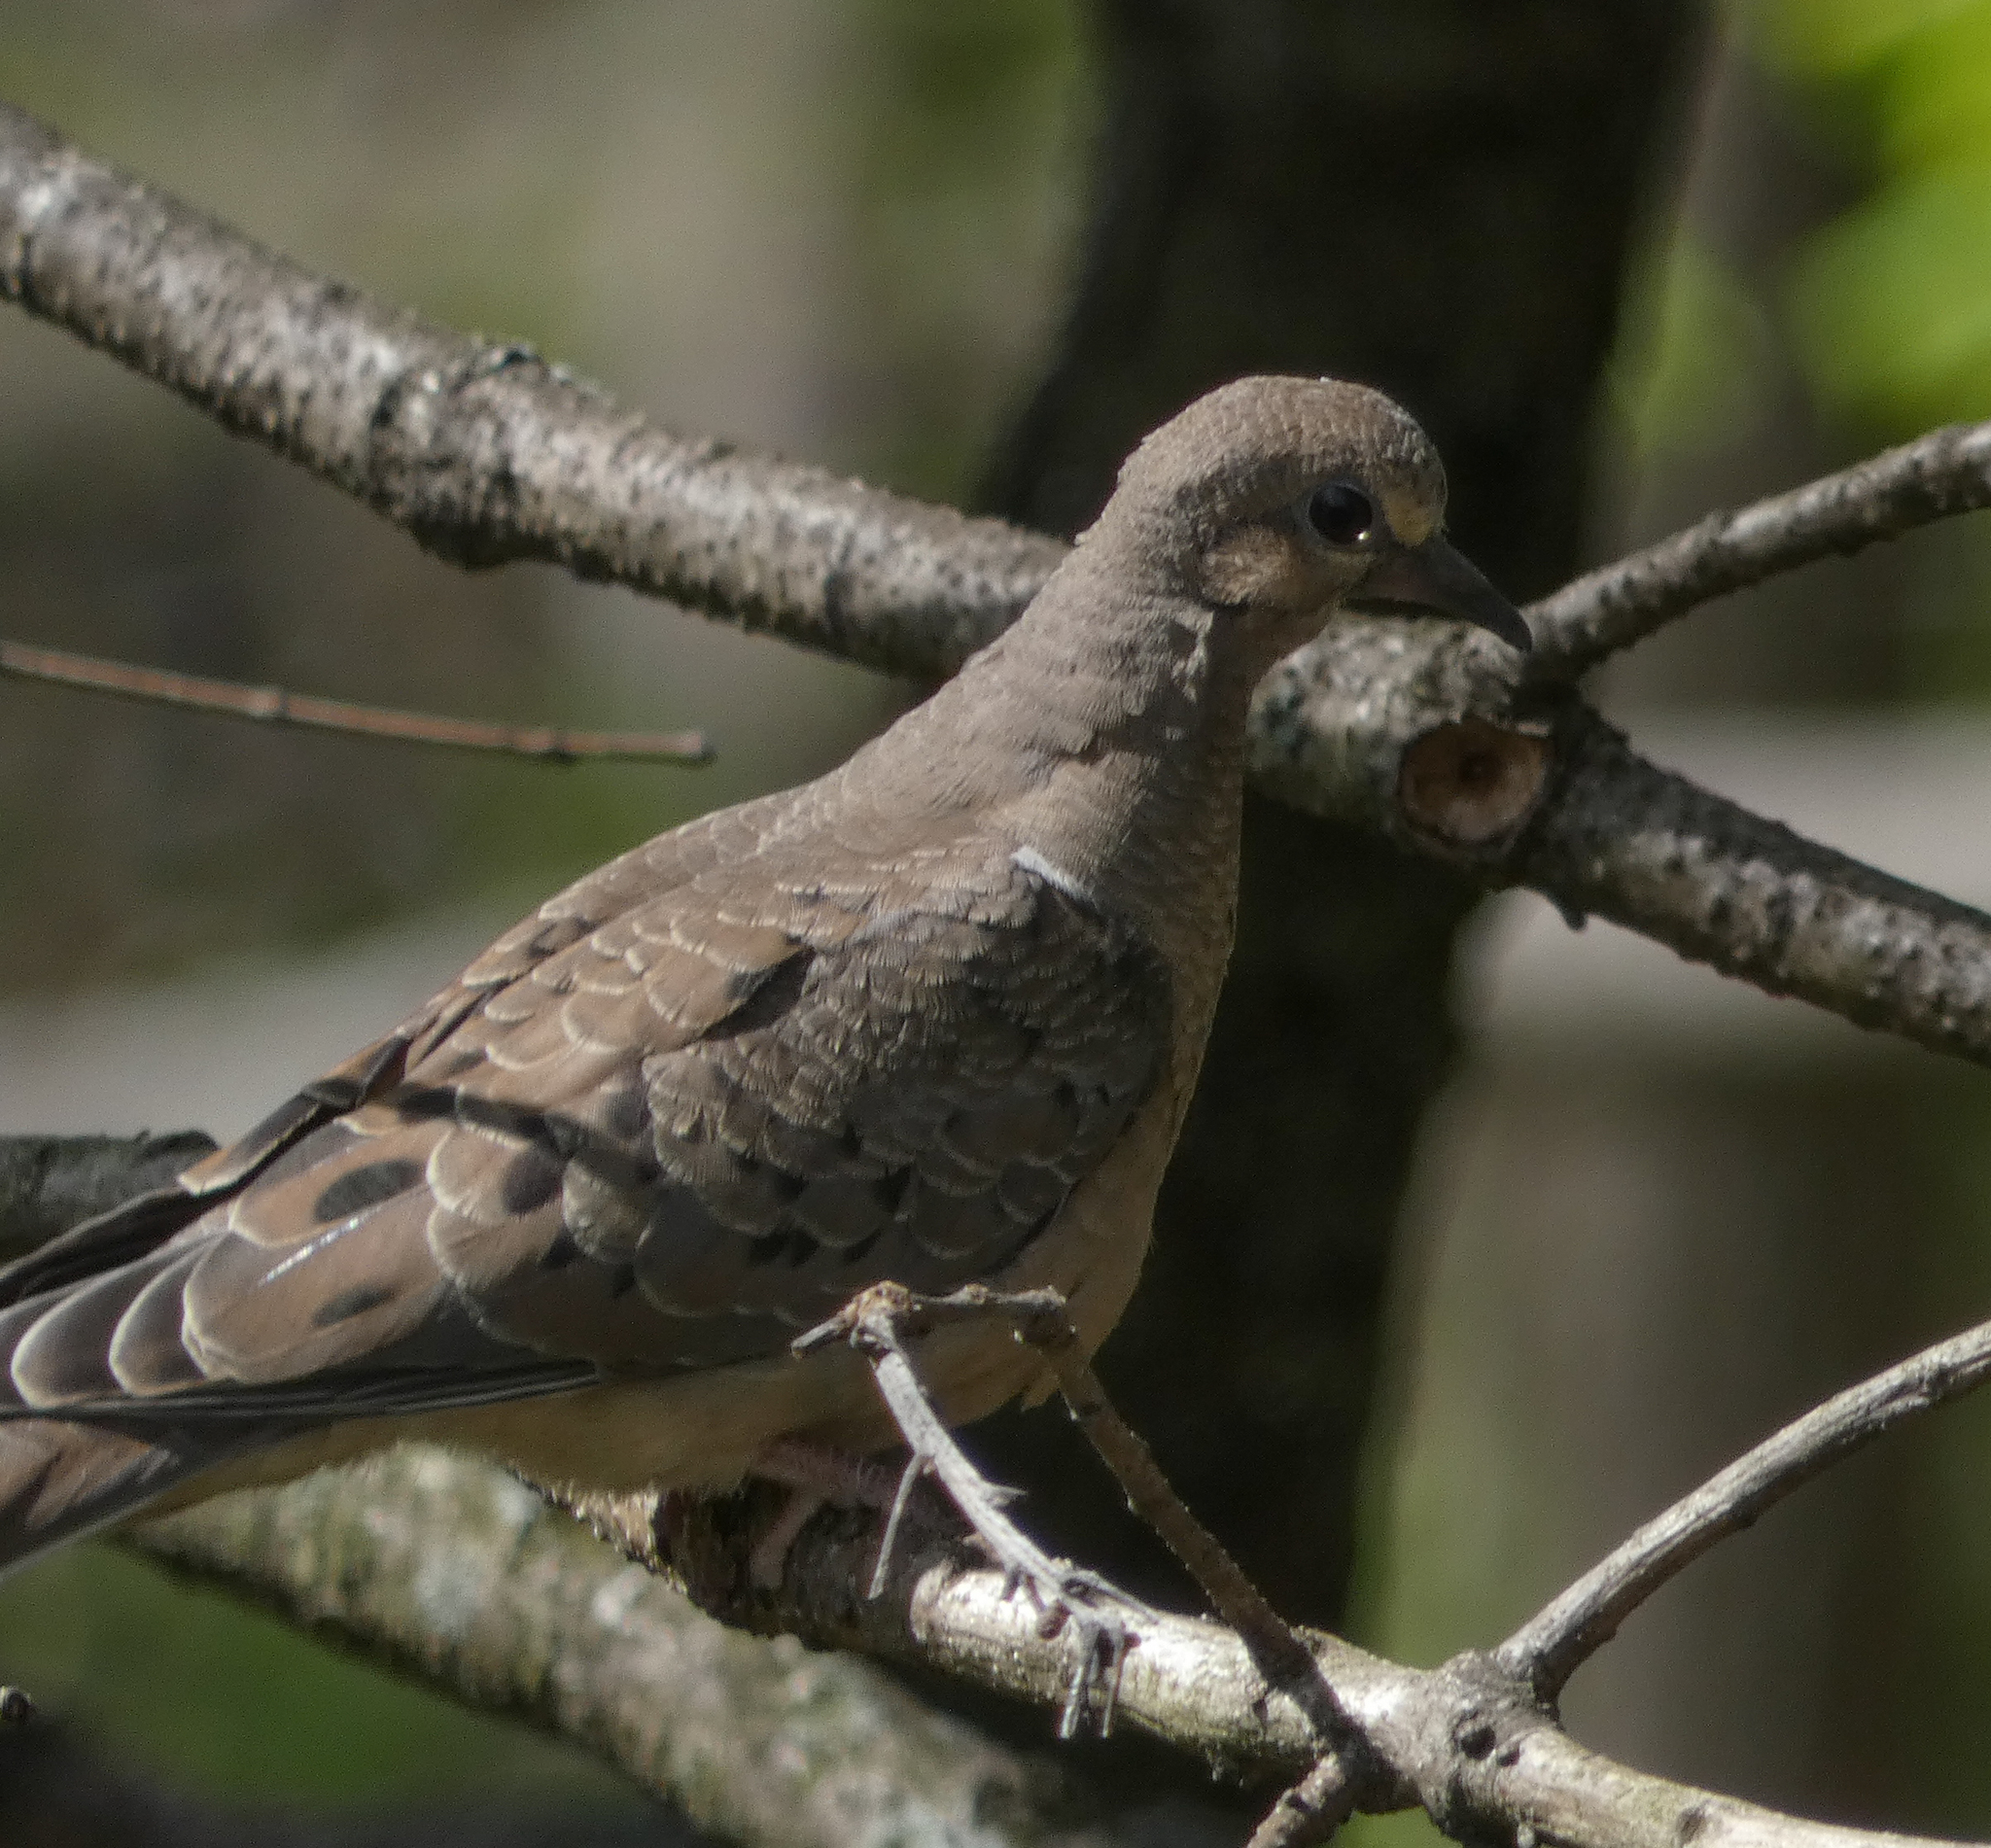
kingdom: Animalia
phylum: Chordata
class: Aves
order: Columbiformes
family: Columbidae
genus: Zenaida
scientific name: Zenaida macroura
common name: Mourning dove
